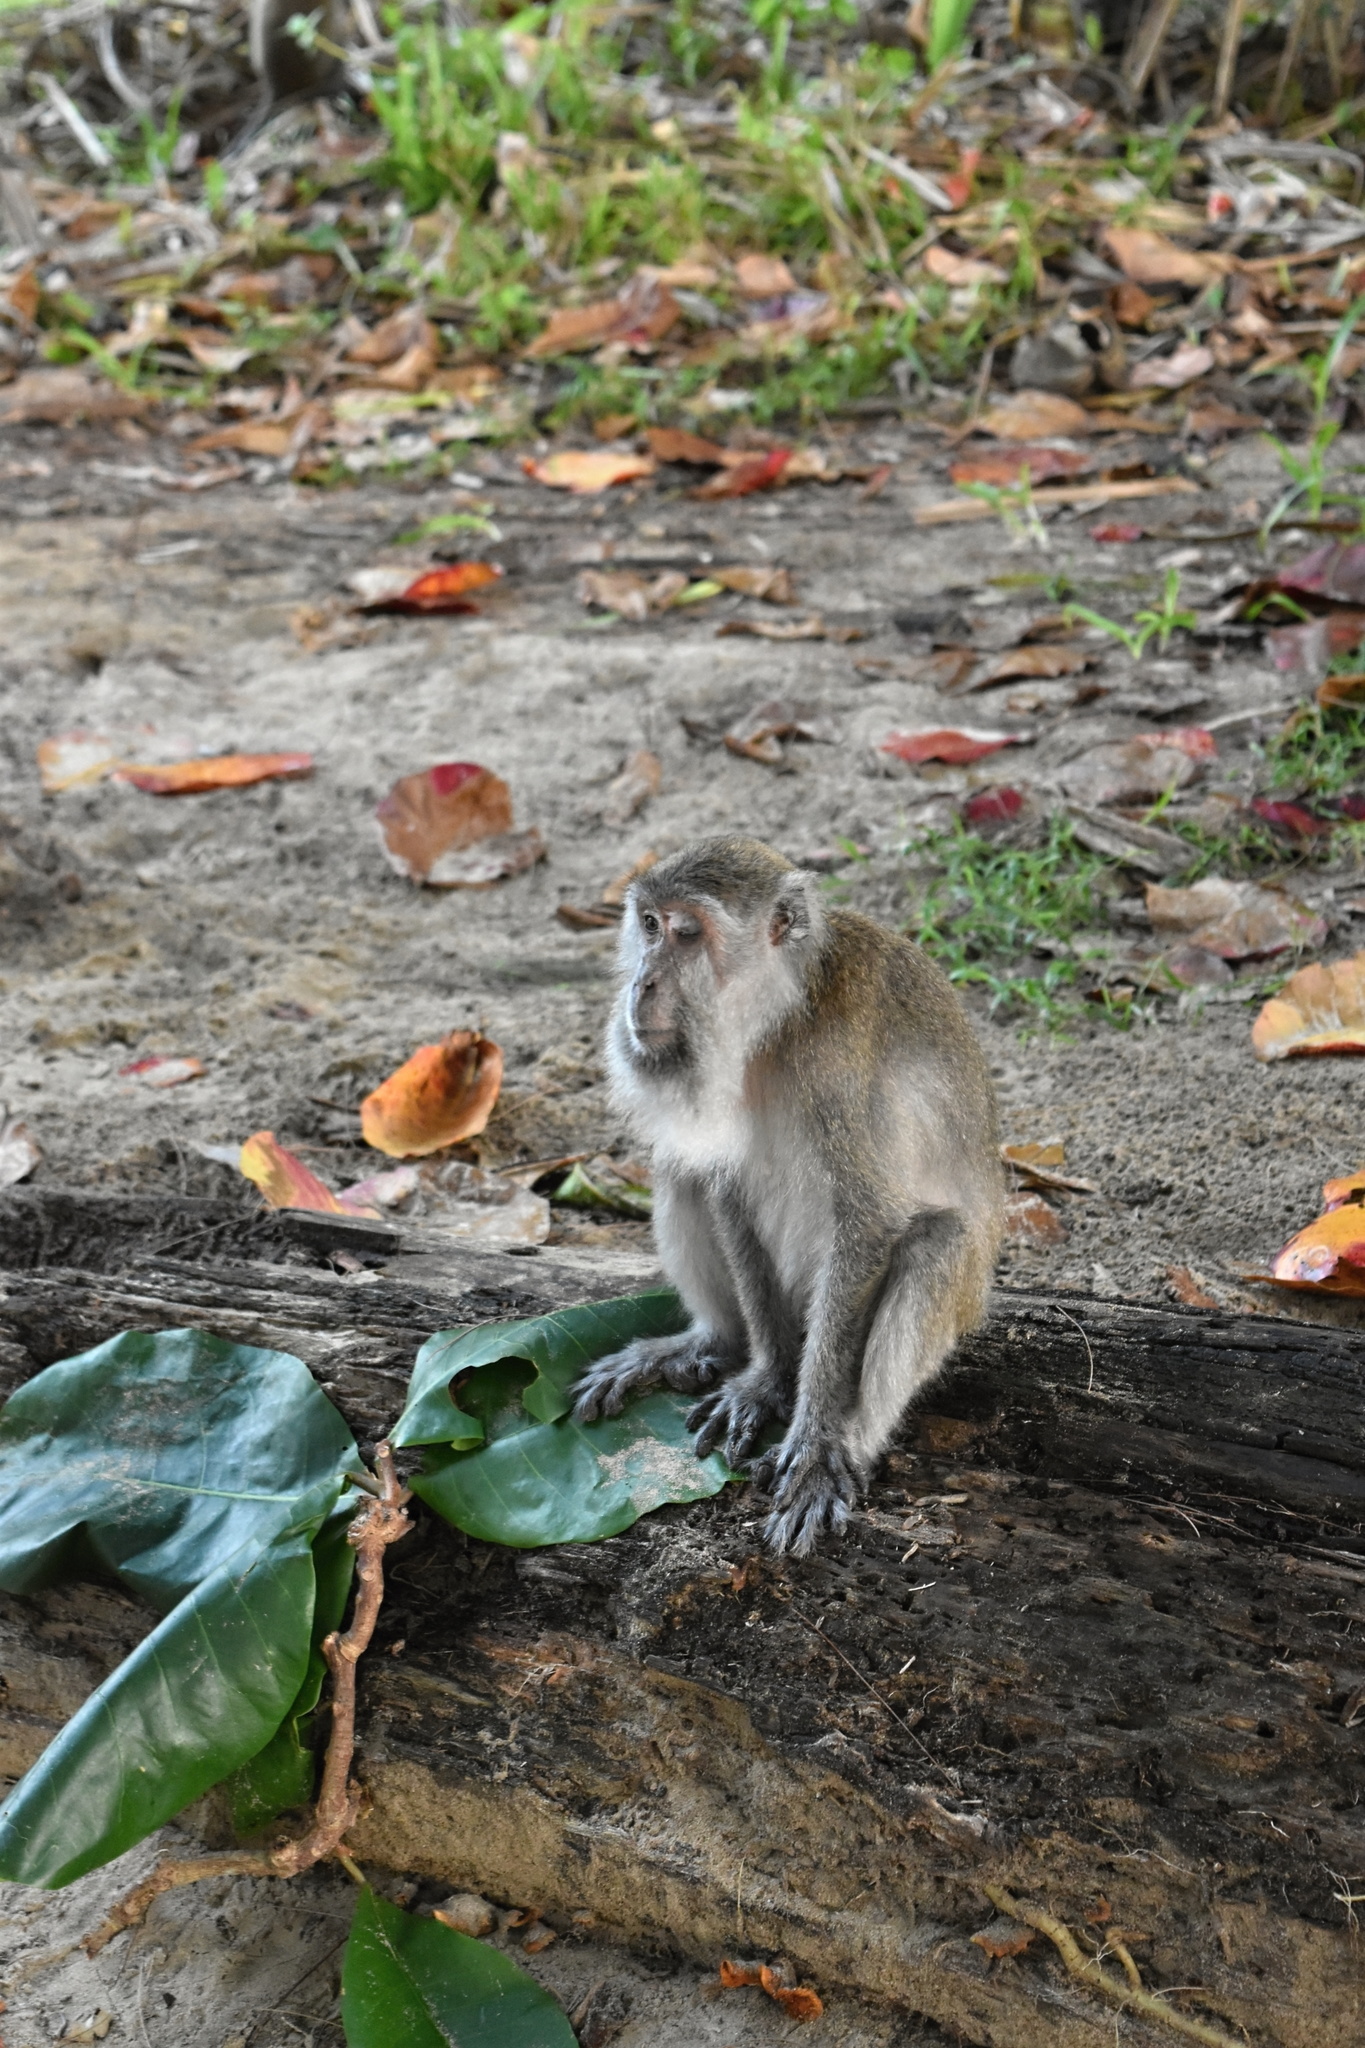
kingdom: Animalia
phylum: Chordata
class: Mammalia
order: Primates
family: Cercopithecidae
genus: Macaca
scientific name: Macaca fascicularis
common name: Crab-eating macaque
